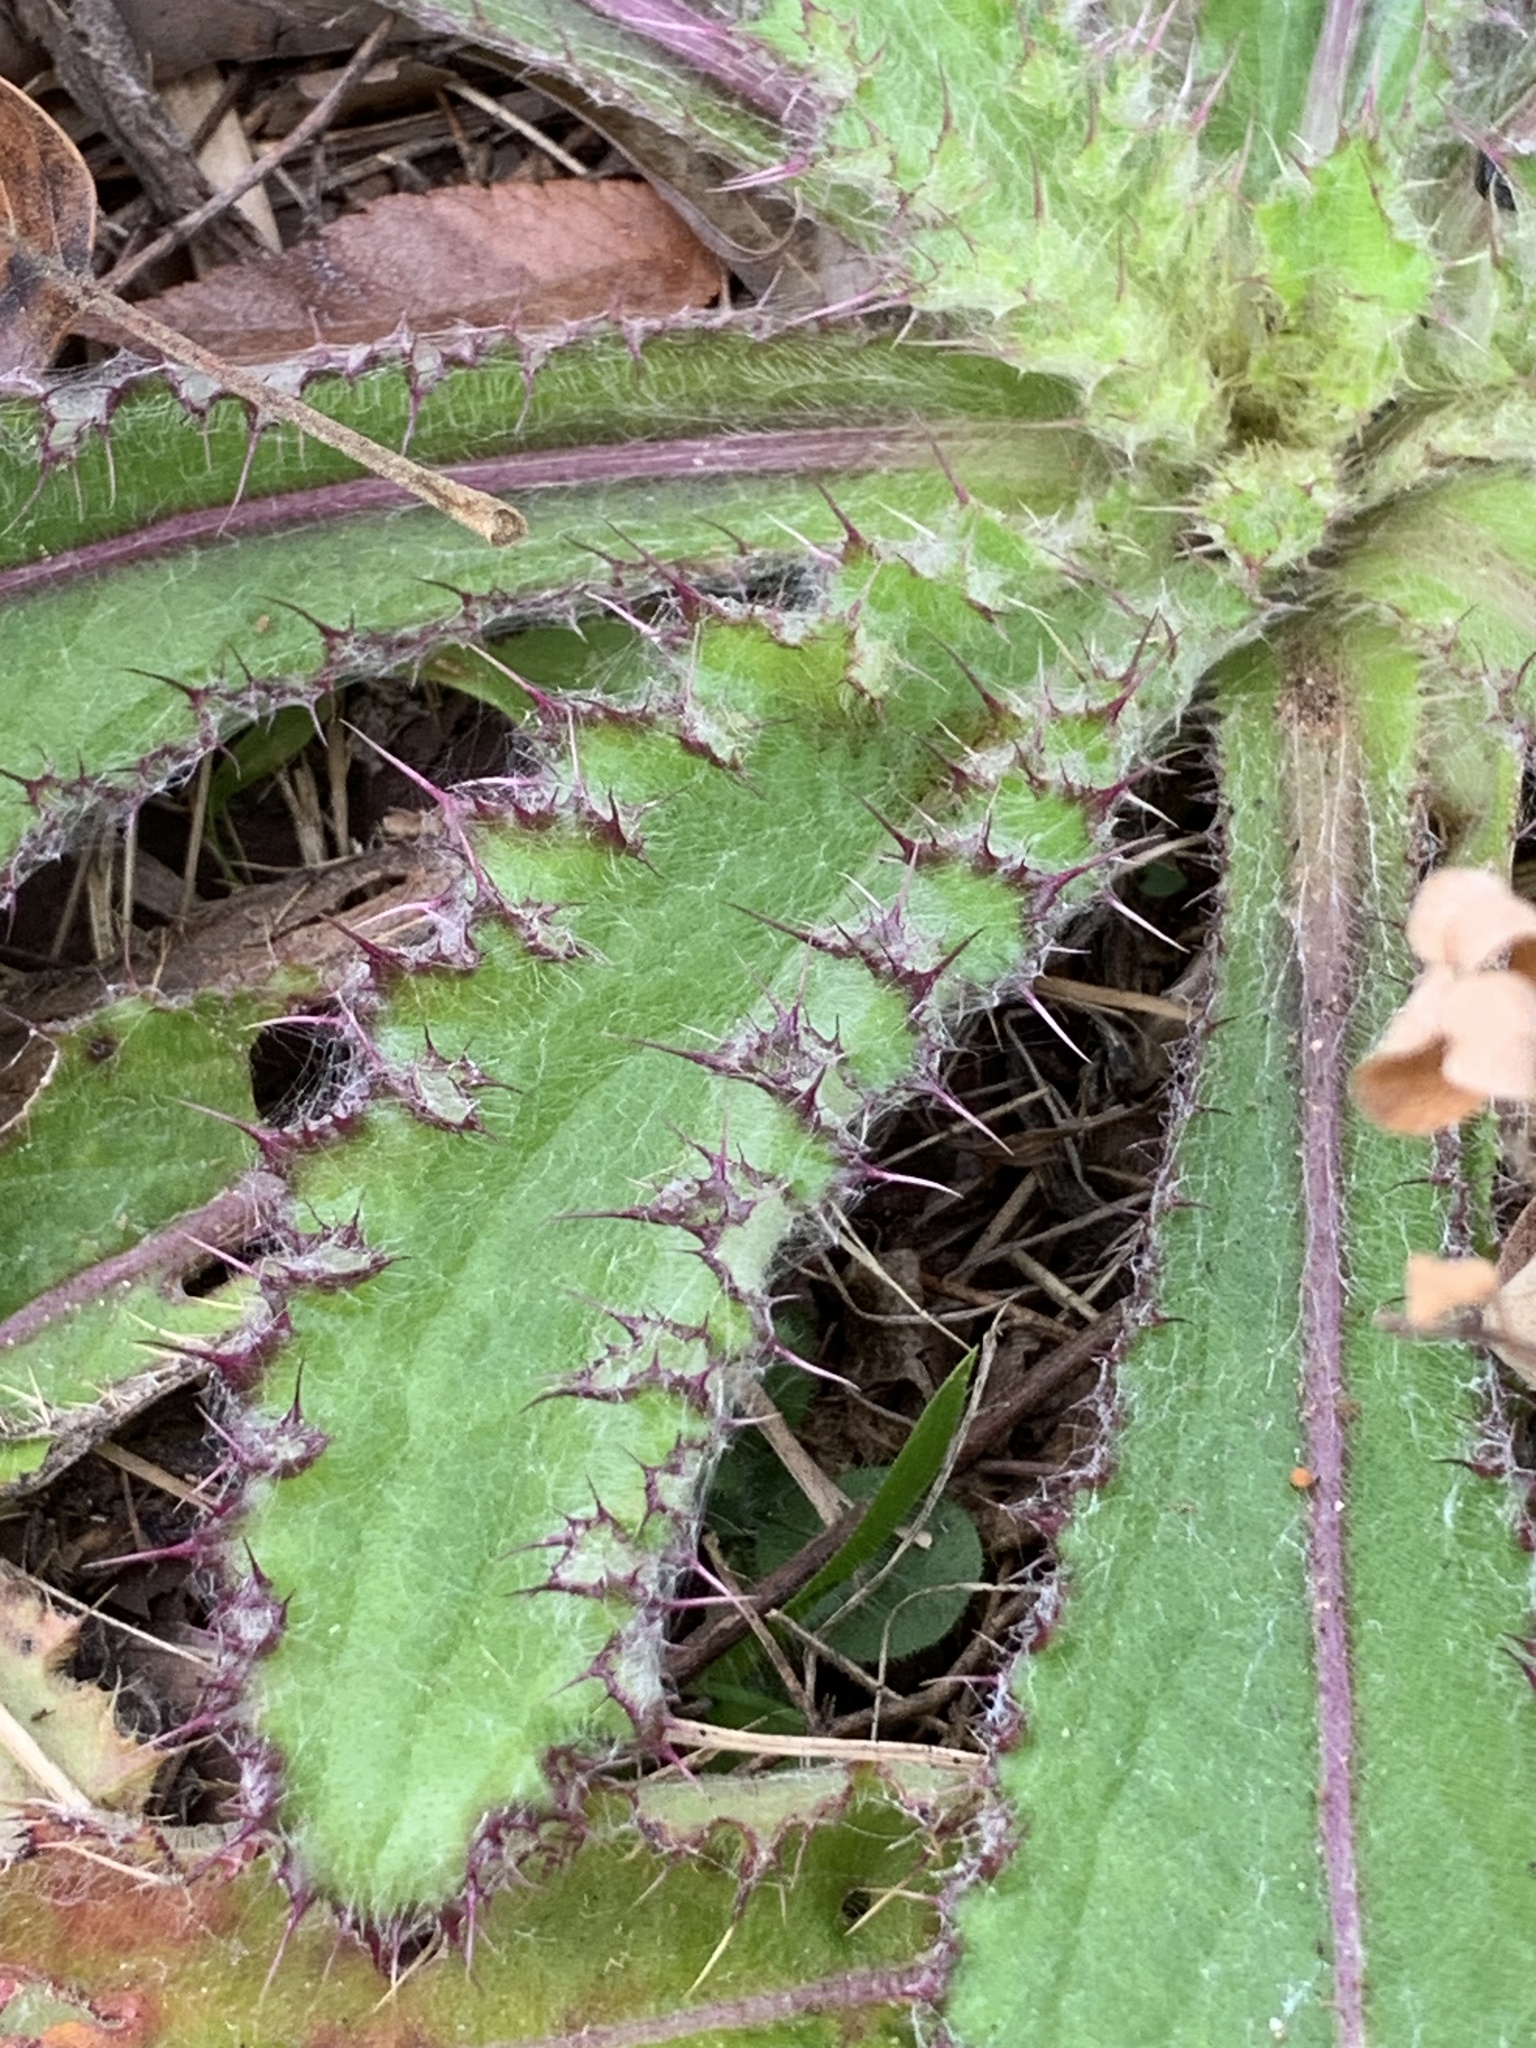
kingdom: Plantae
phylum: Tracheophyta
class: Magnoliopsida
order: Asterales
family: Asteraceae
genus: Cirsium
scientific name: Cirsium horridulum
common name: Bristly thistle
